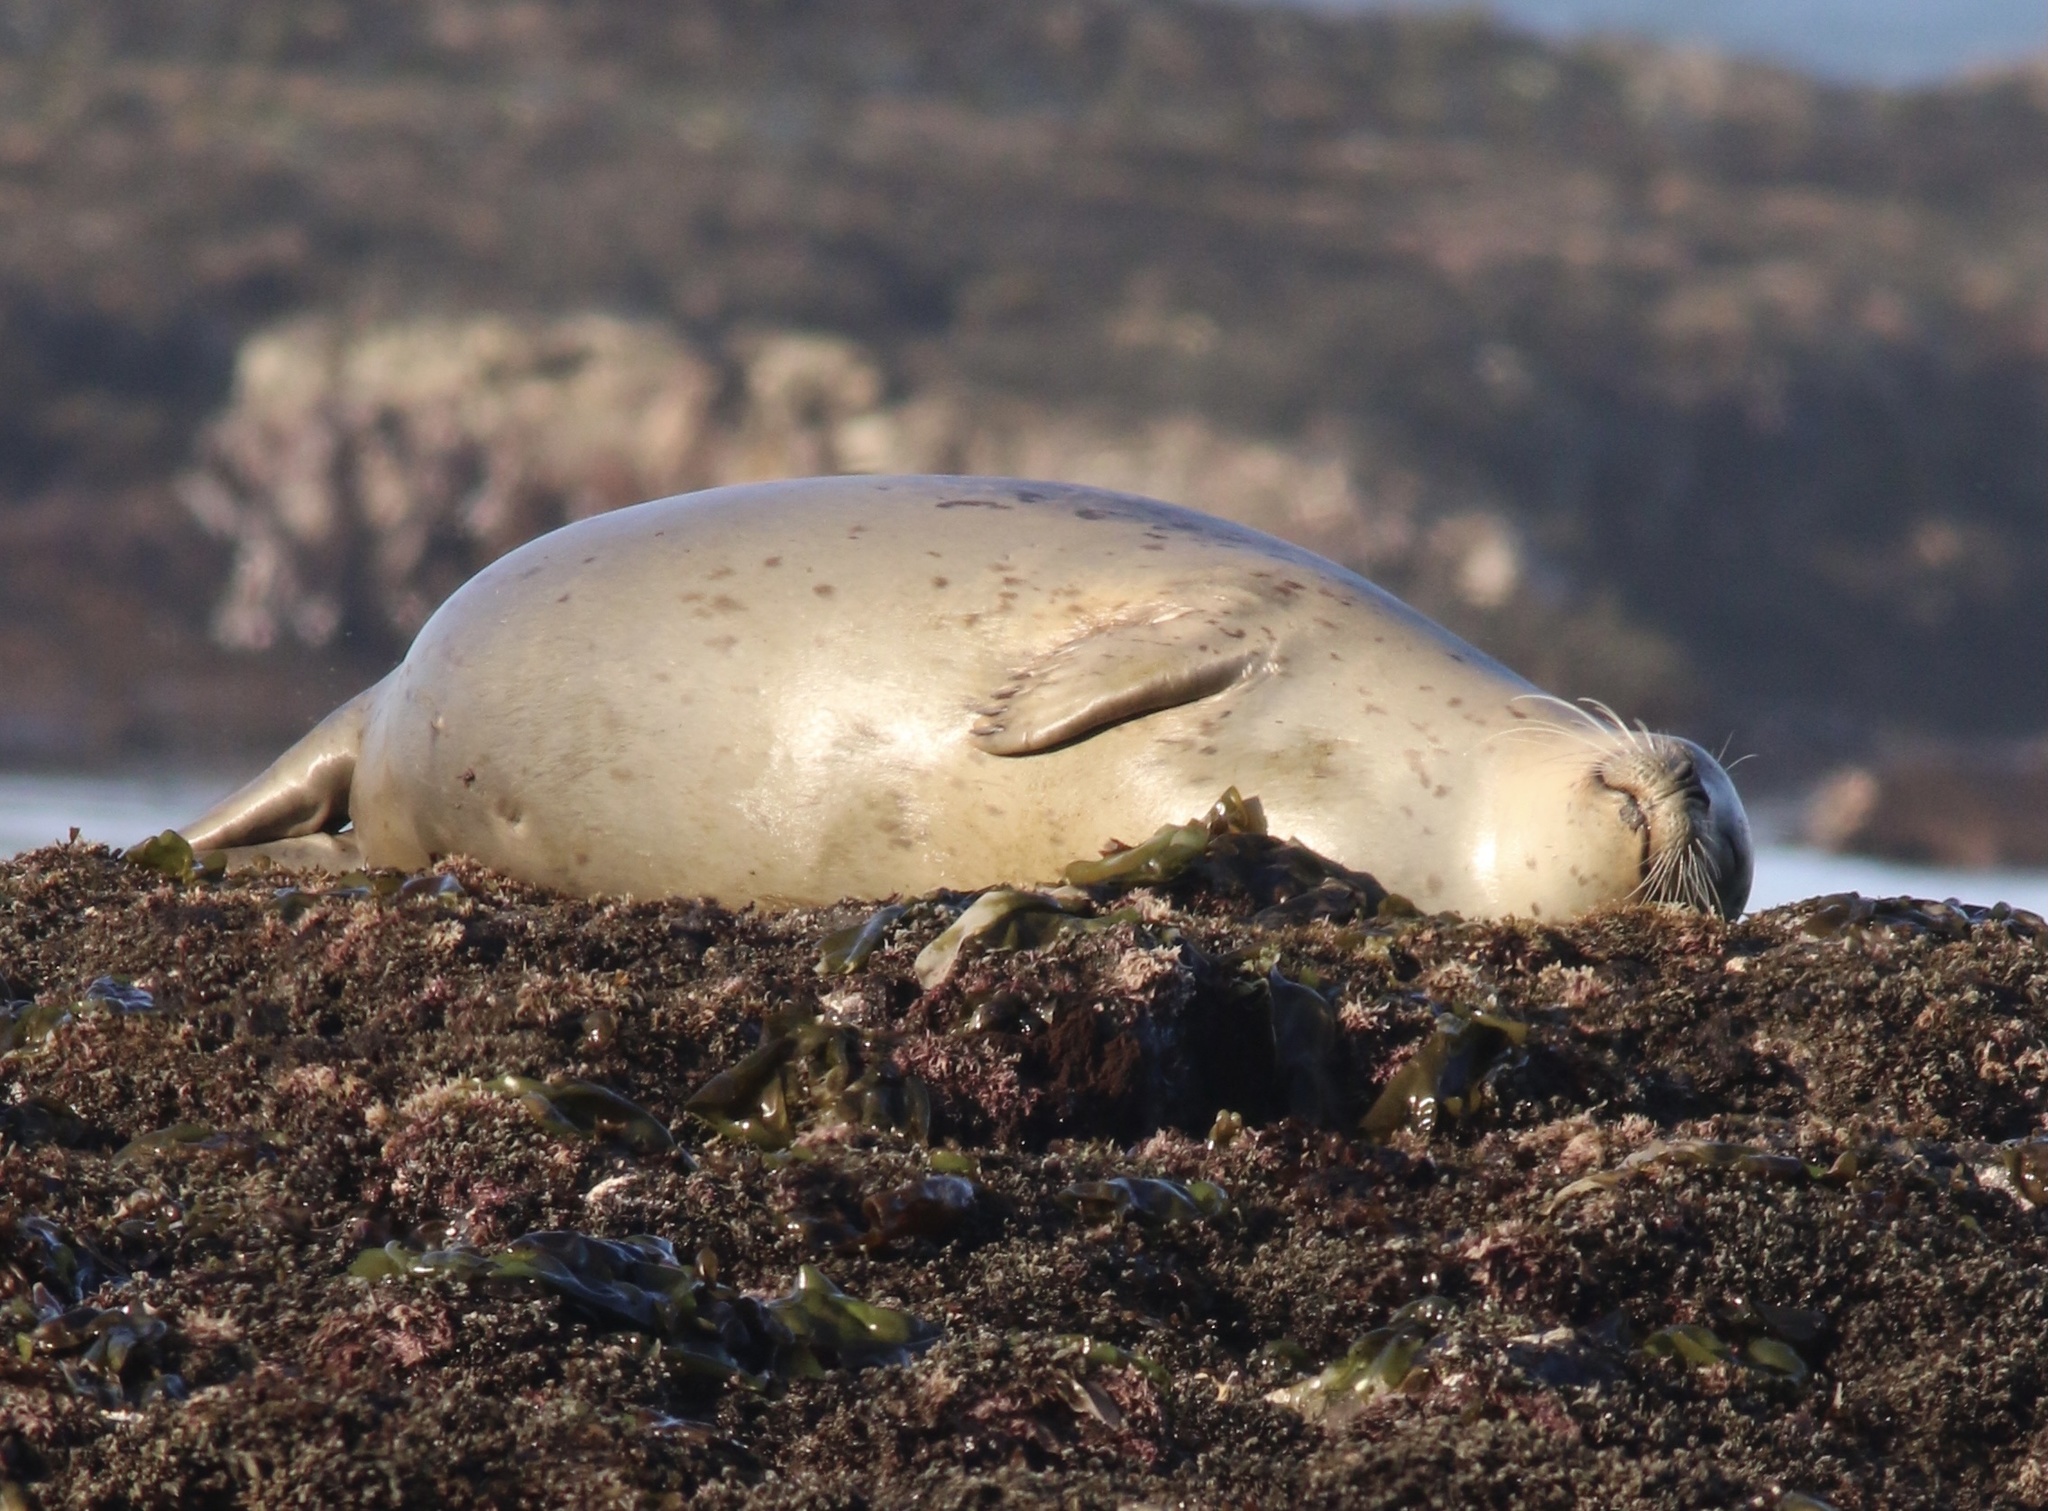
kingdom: Animalia
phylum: Chordata
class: Mammalia
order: Carnivora
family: Phocidae
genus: Phoca
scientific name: Phoca vitulina
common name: Harbor seal
